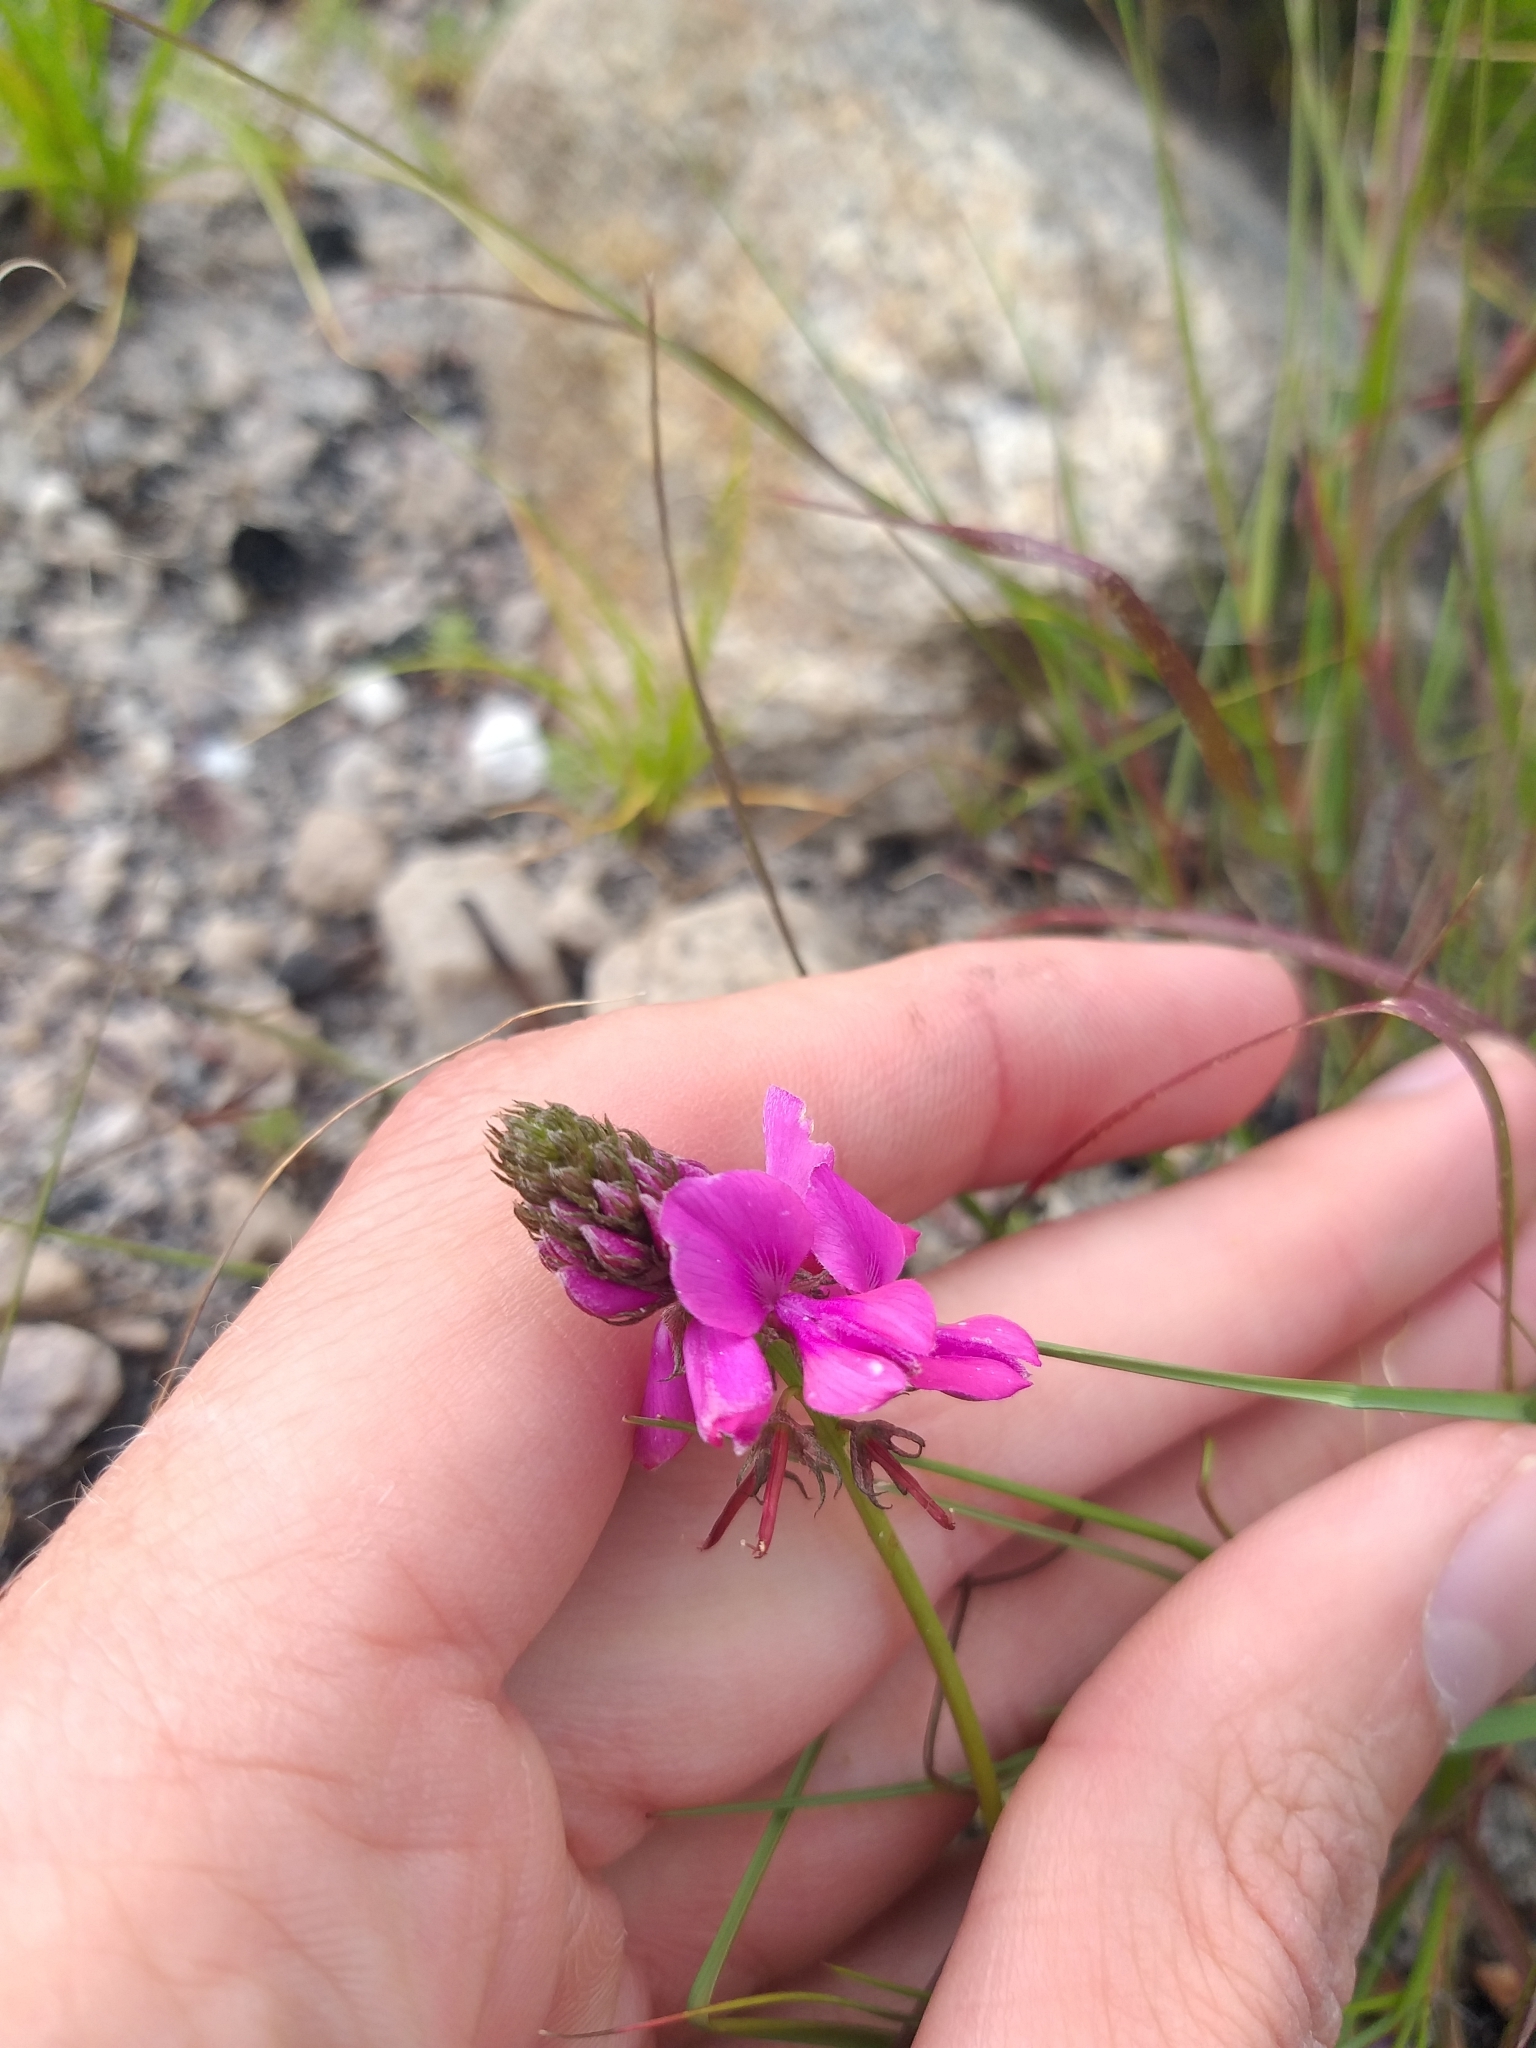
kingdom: Plantae
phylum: Tracheophyta
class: Magnoliopsida
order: Fabales
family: Fabaceae
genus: Indigofera
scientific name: Indigofera capillaris
